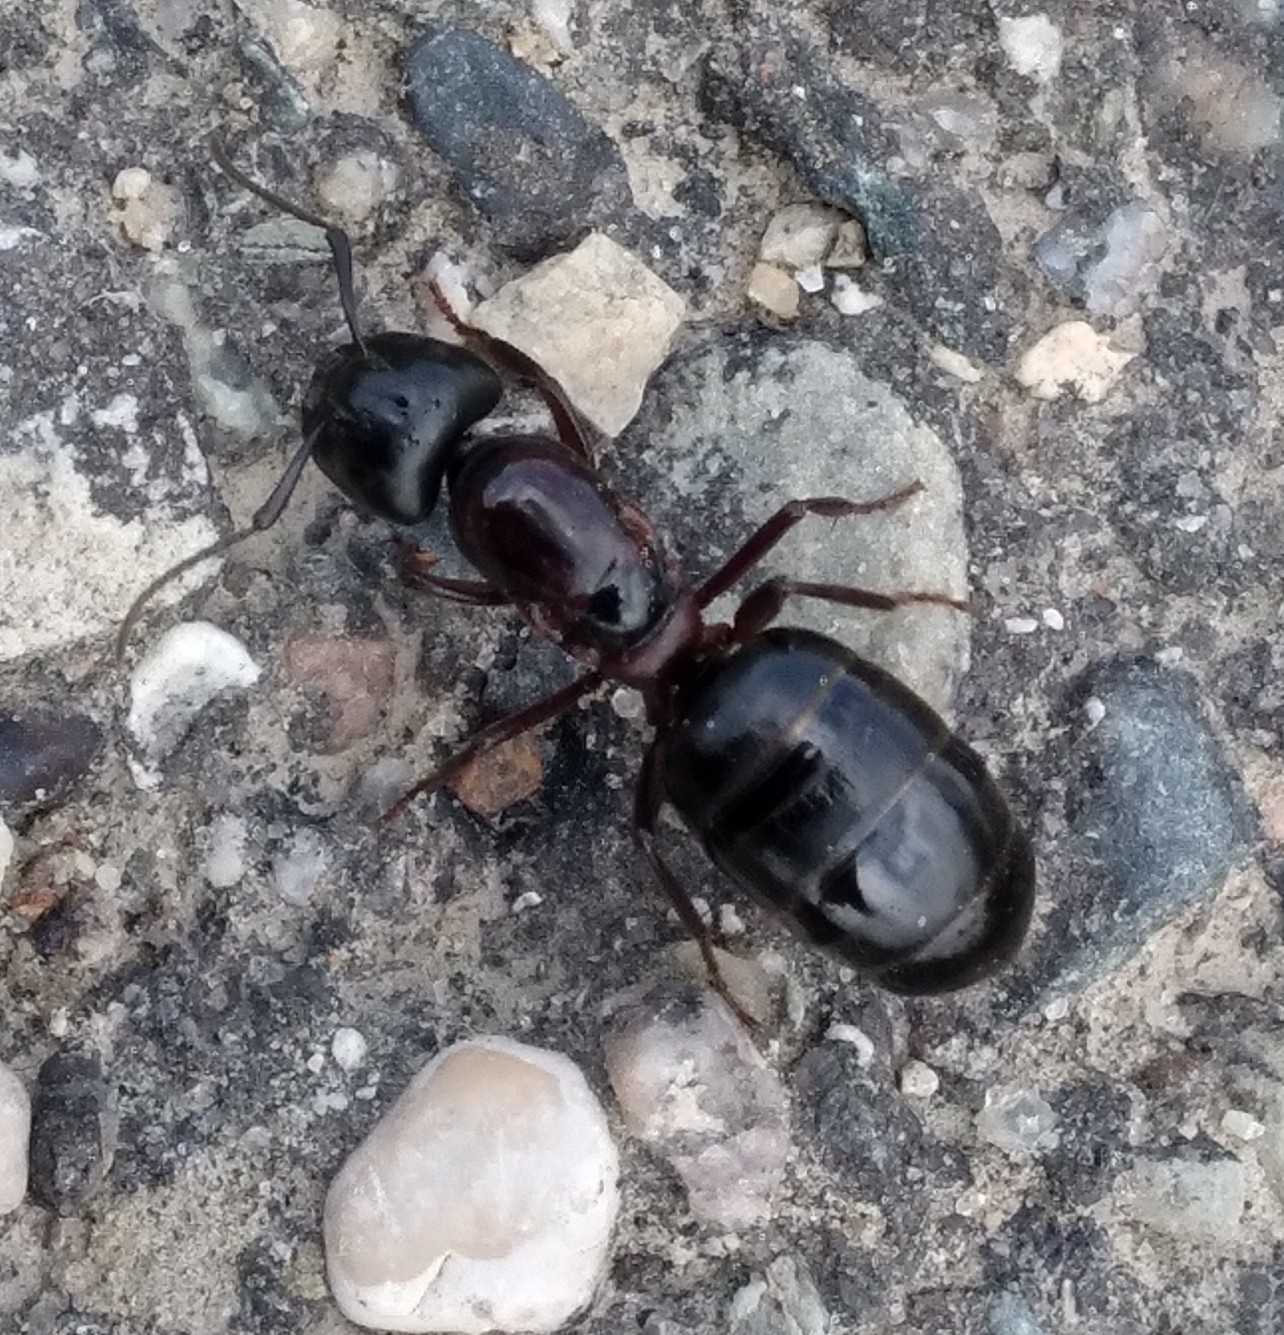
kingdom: Animalia
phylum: Arthropoda
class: Insecta
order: Hymenoptera
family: Formicidae
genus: Camponotus
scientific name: Camponotus novaeboracensis
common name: New york carpenter ant
